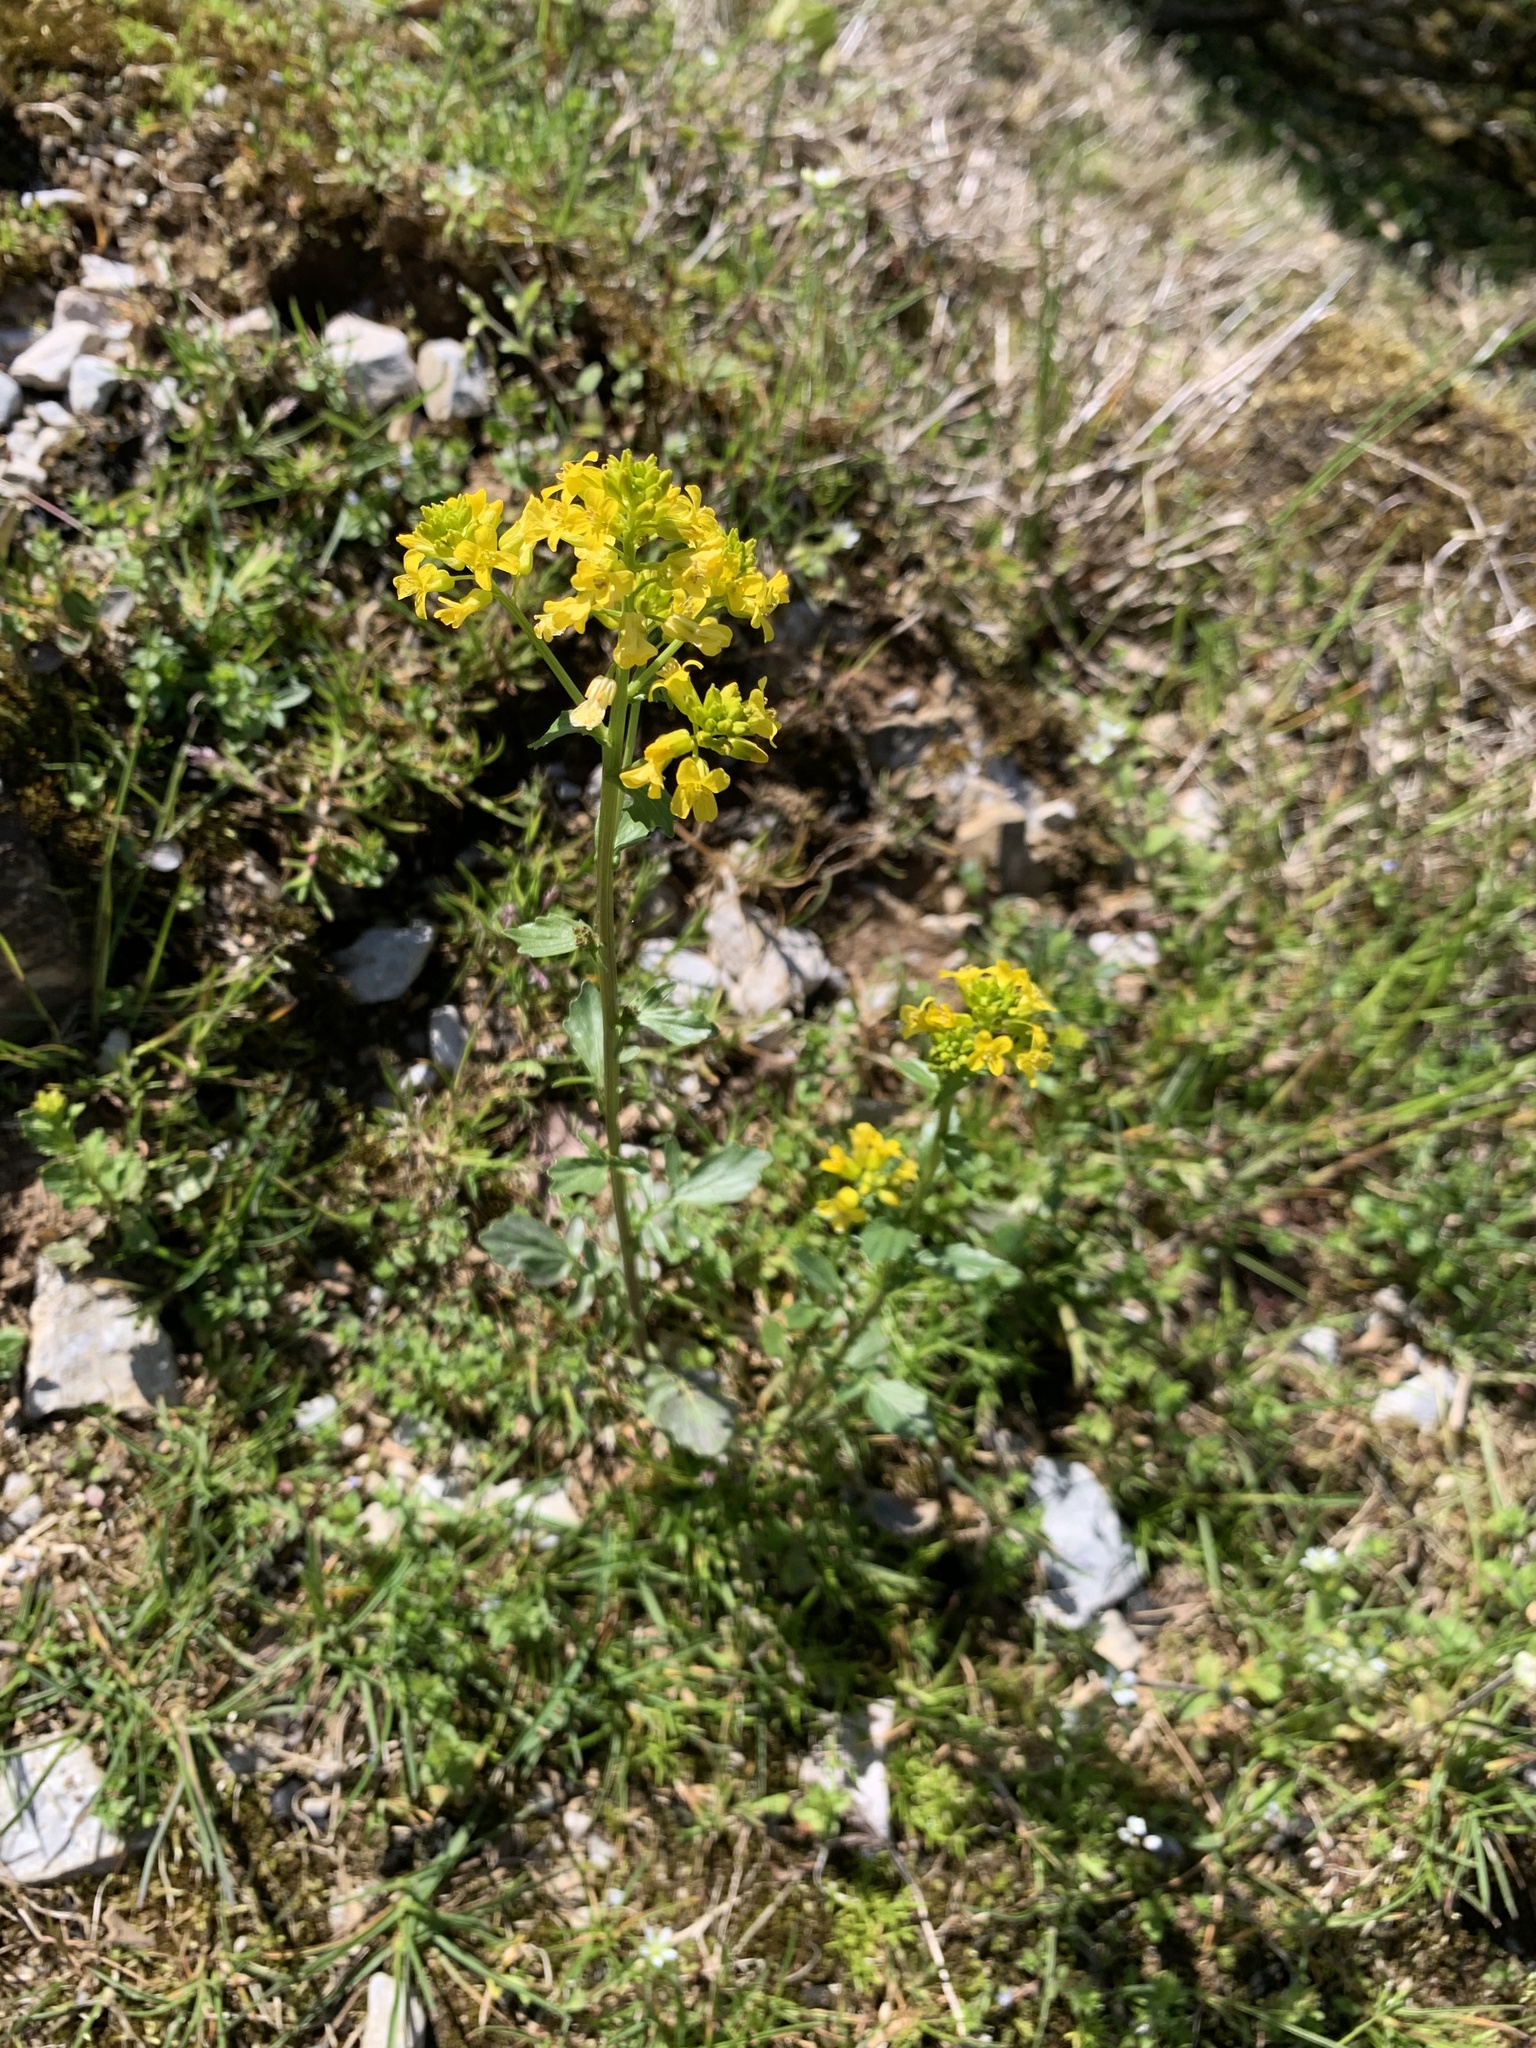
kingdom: Plantae
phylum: Tracheophyta
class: Magnoliopsida
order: Brassicales
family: Brassicaceae
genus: Barbarea
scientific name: Barbarea vulgaris
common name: Cressy-greens
